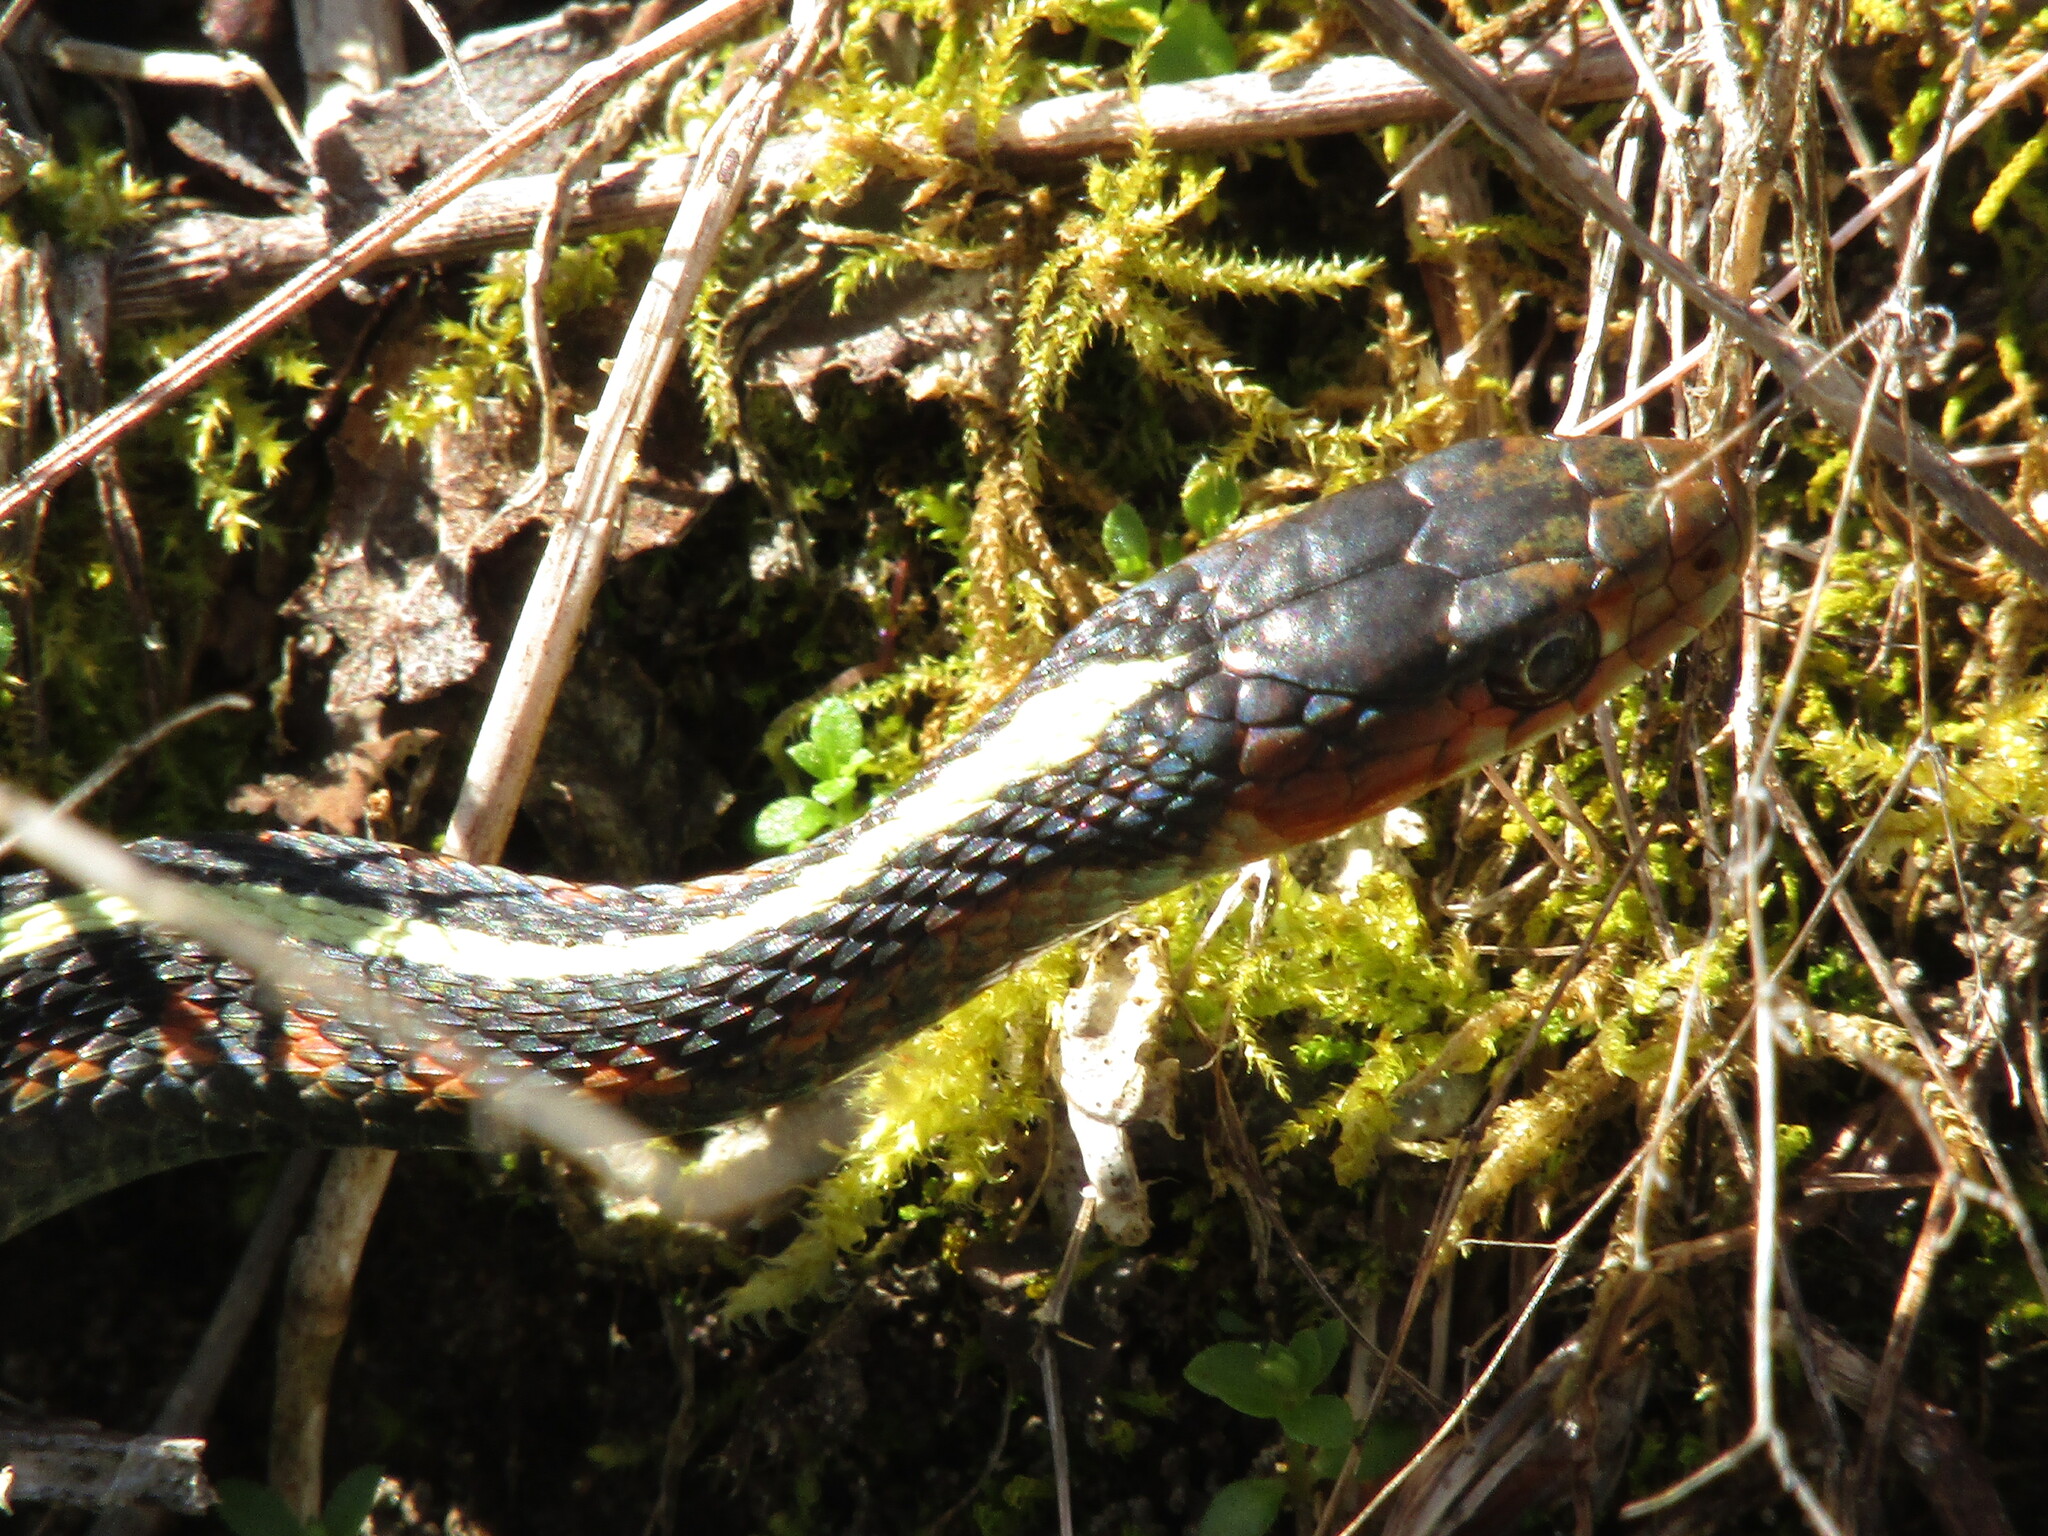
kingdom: Animalia
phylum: Chordata
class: Squamata
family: Colubridae
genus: Thamnophis
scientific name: Thamnophis sirtalis
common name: Common garter snake
